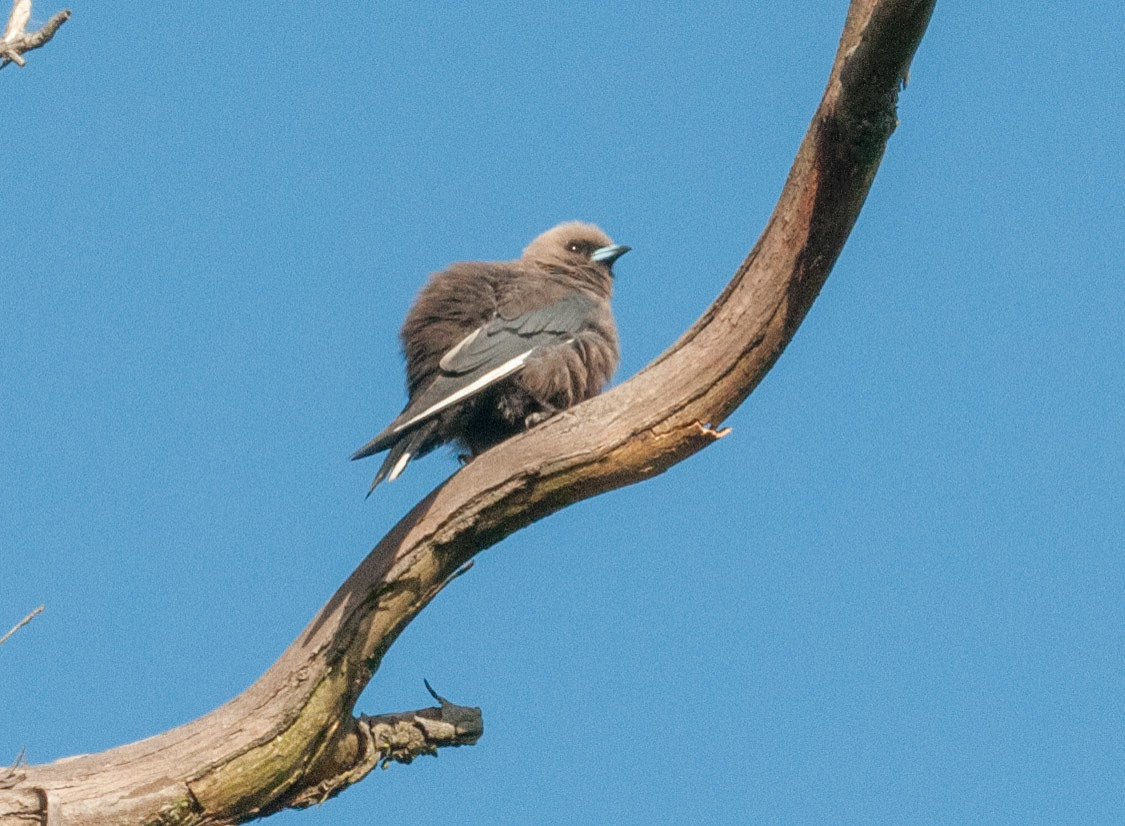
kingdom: Animalia
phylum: Chordata
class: Aves
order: Passeriformes
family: Artamidae
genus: Artamus
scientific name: Artamus cyanopterus
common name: Dusky woodswallow
